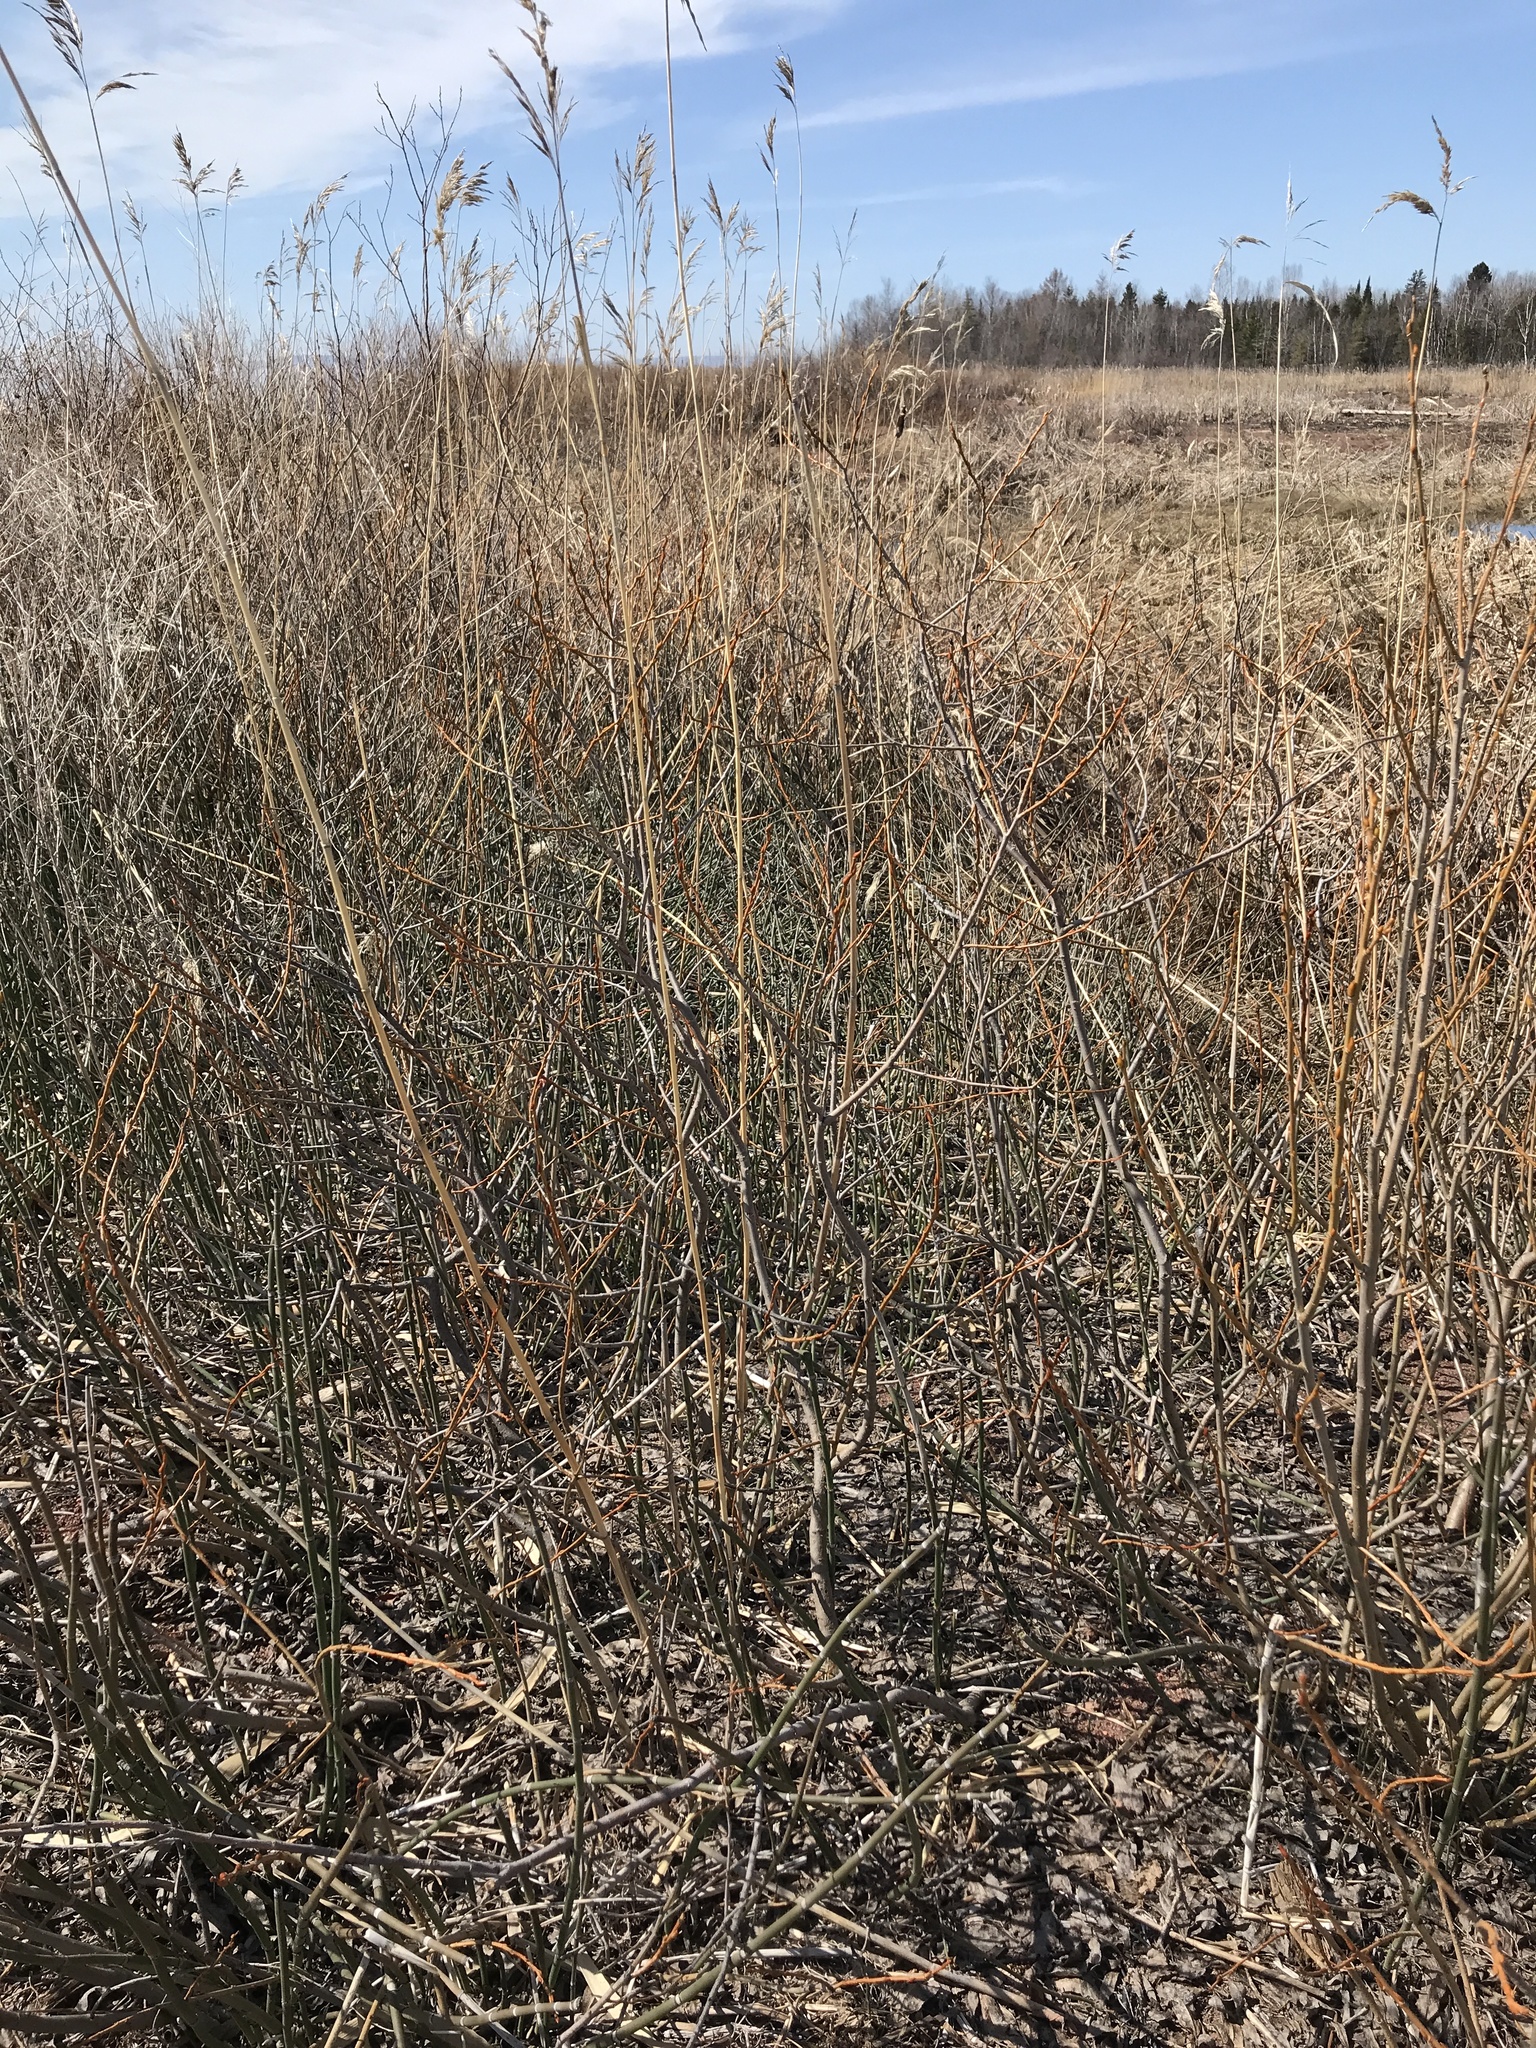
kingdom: Plantae
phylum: Tracheophyta
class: Liliopsida
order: Poales
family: Poaceae
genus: Phragmites
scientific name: Phragmites australis
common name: Common reed
